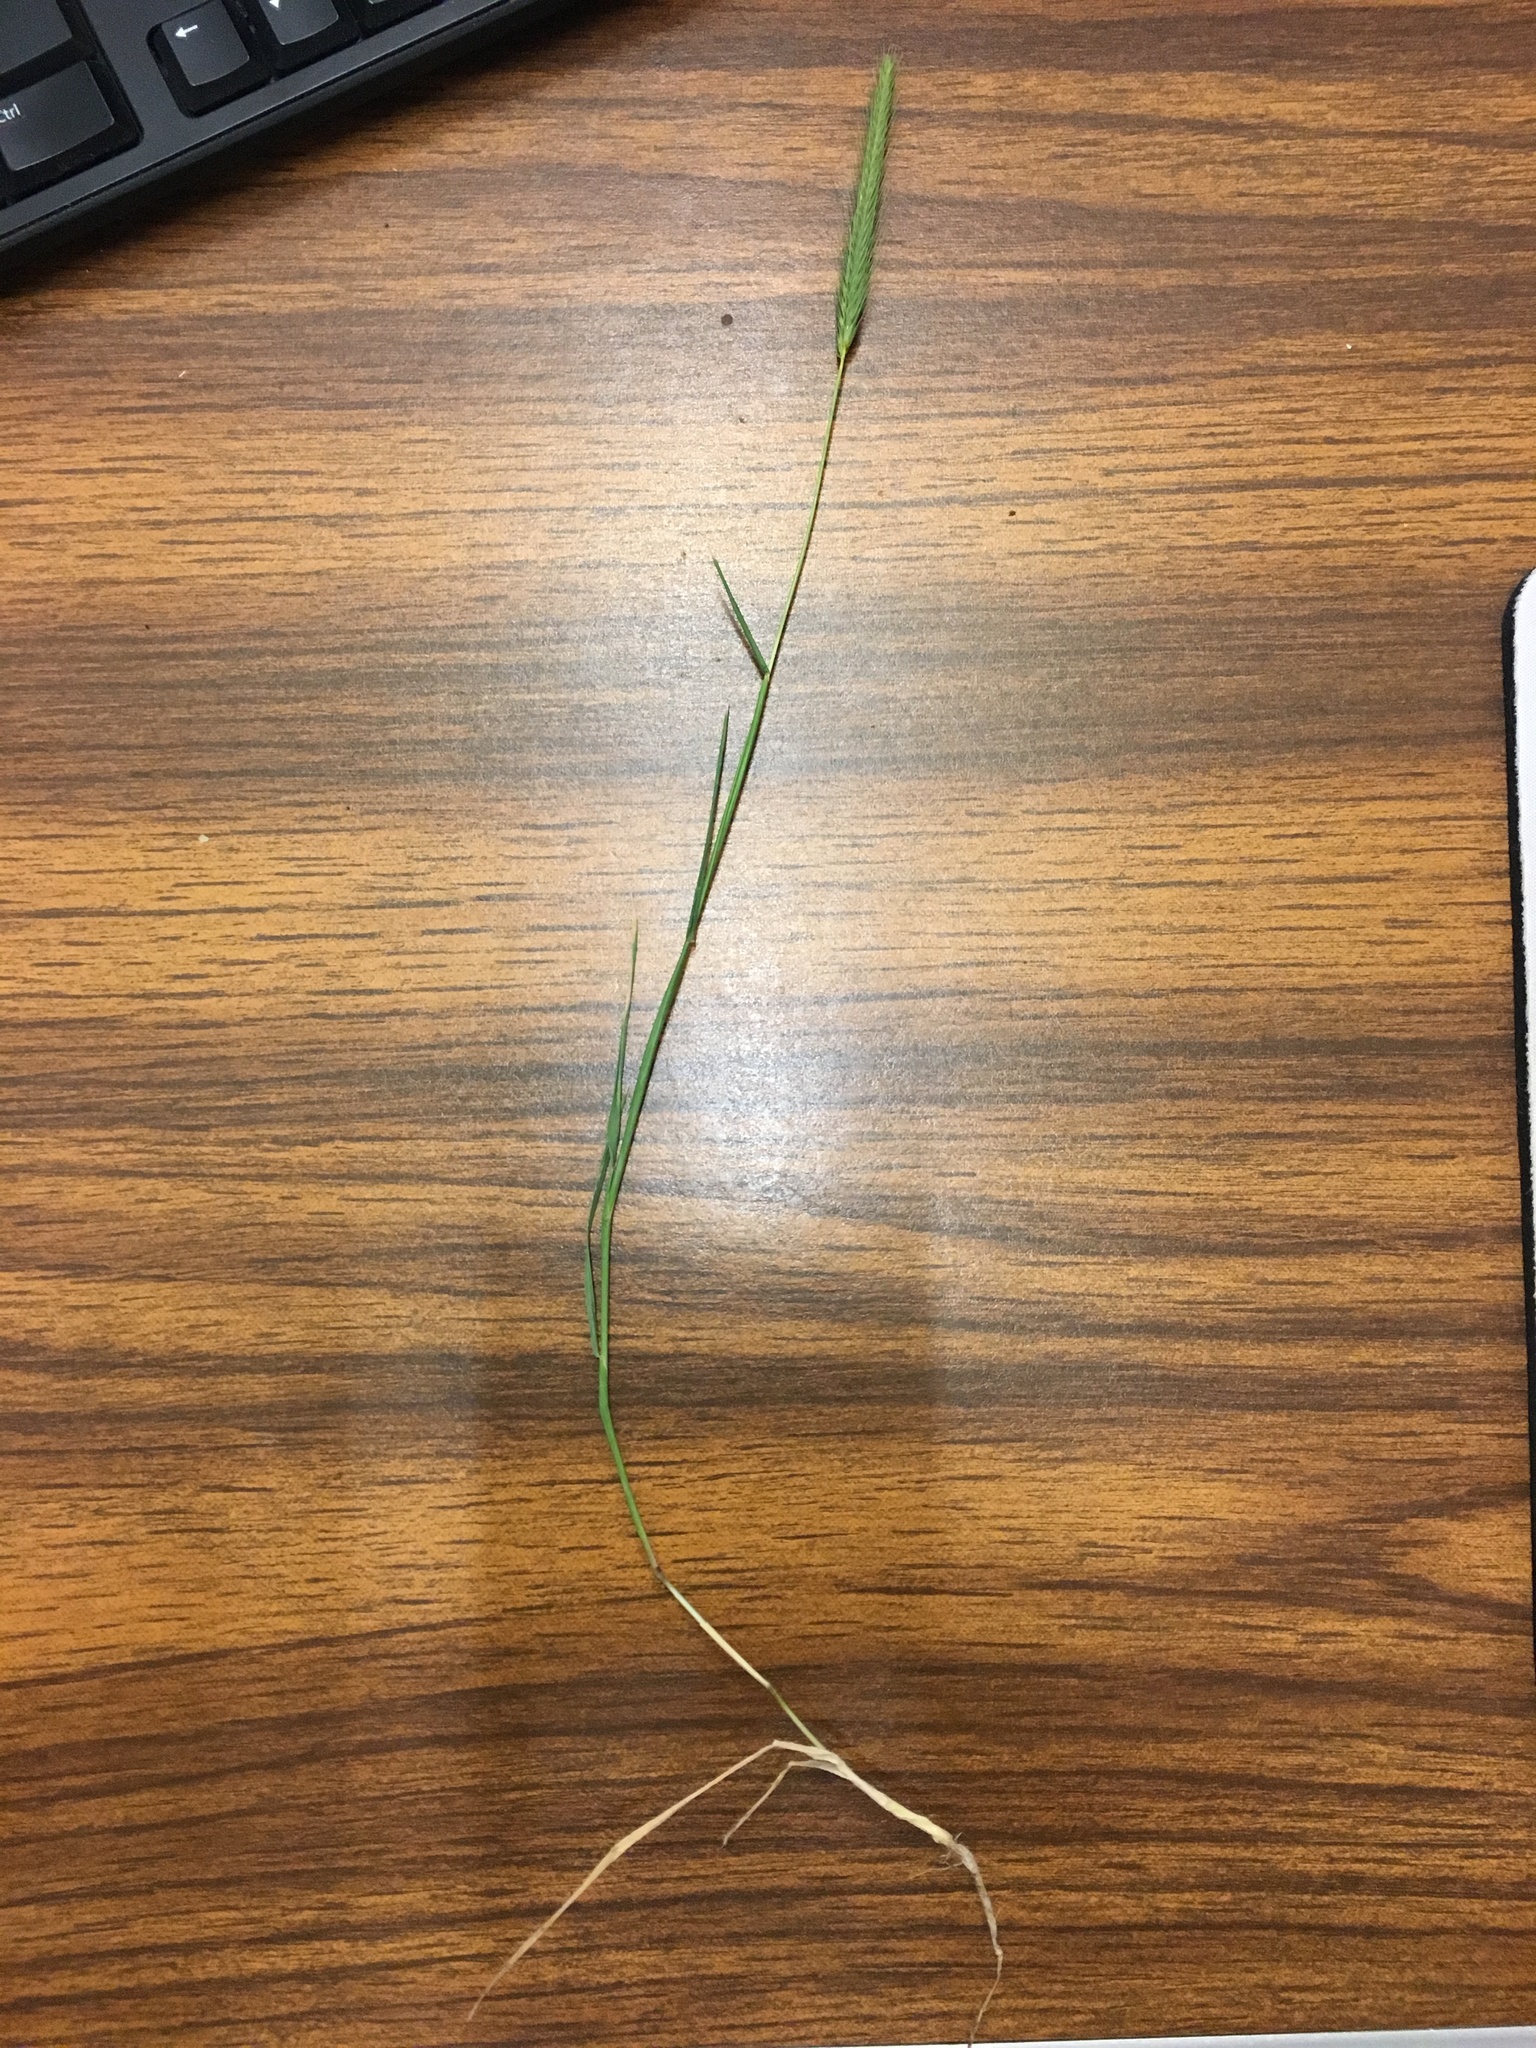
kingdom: Plantae
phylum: Tracheophyta
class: Liliopsida
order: Poales
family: Poaceae
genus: Hordeum
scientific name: Hordeum pusillum
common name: Little barley
